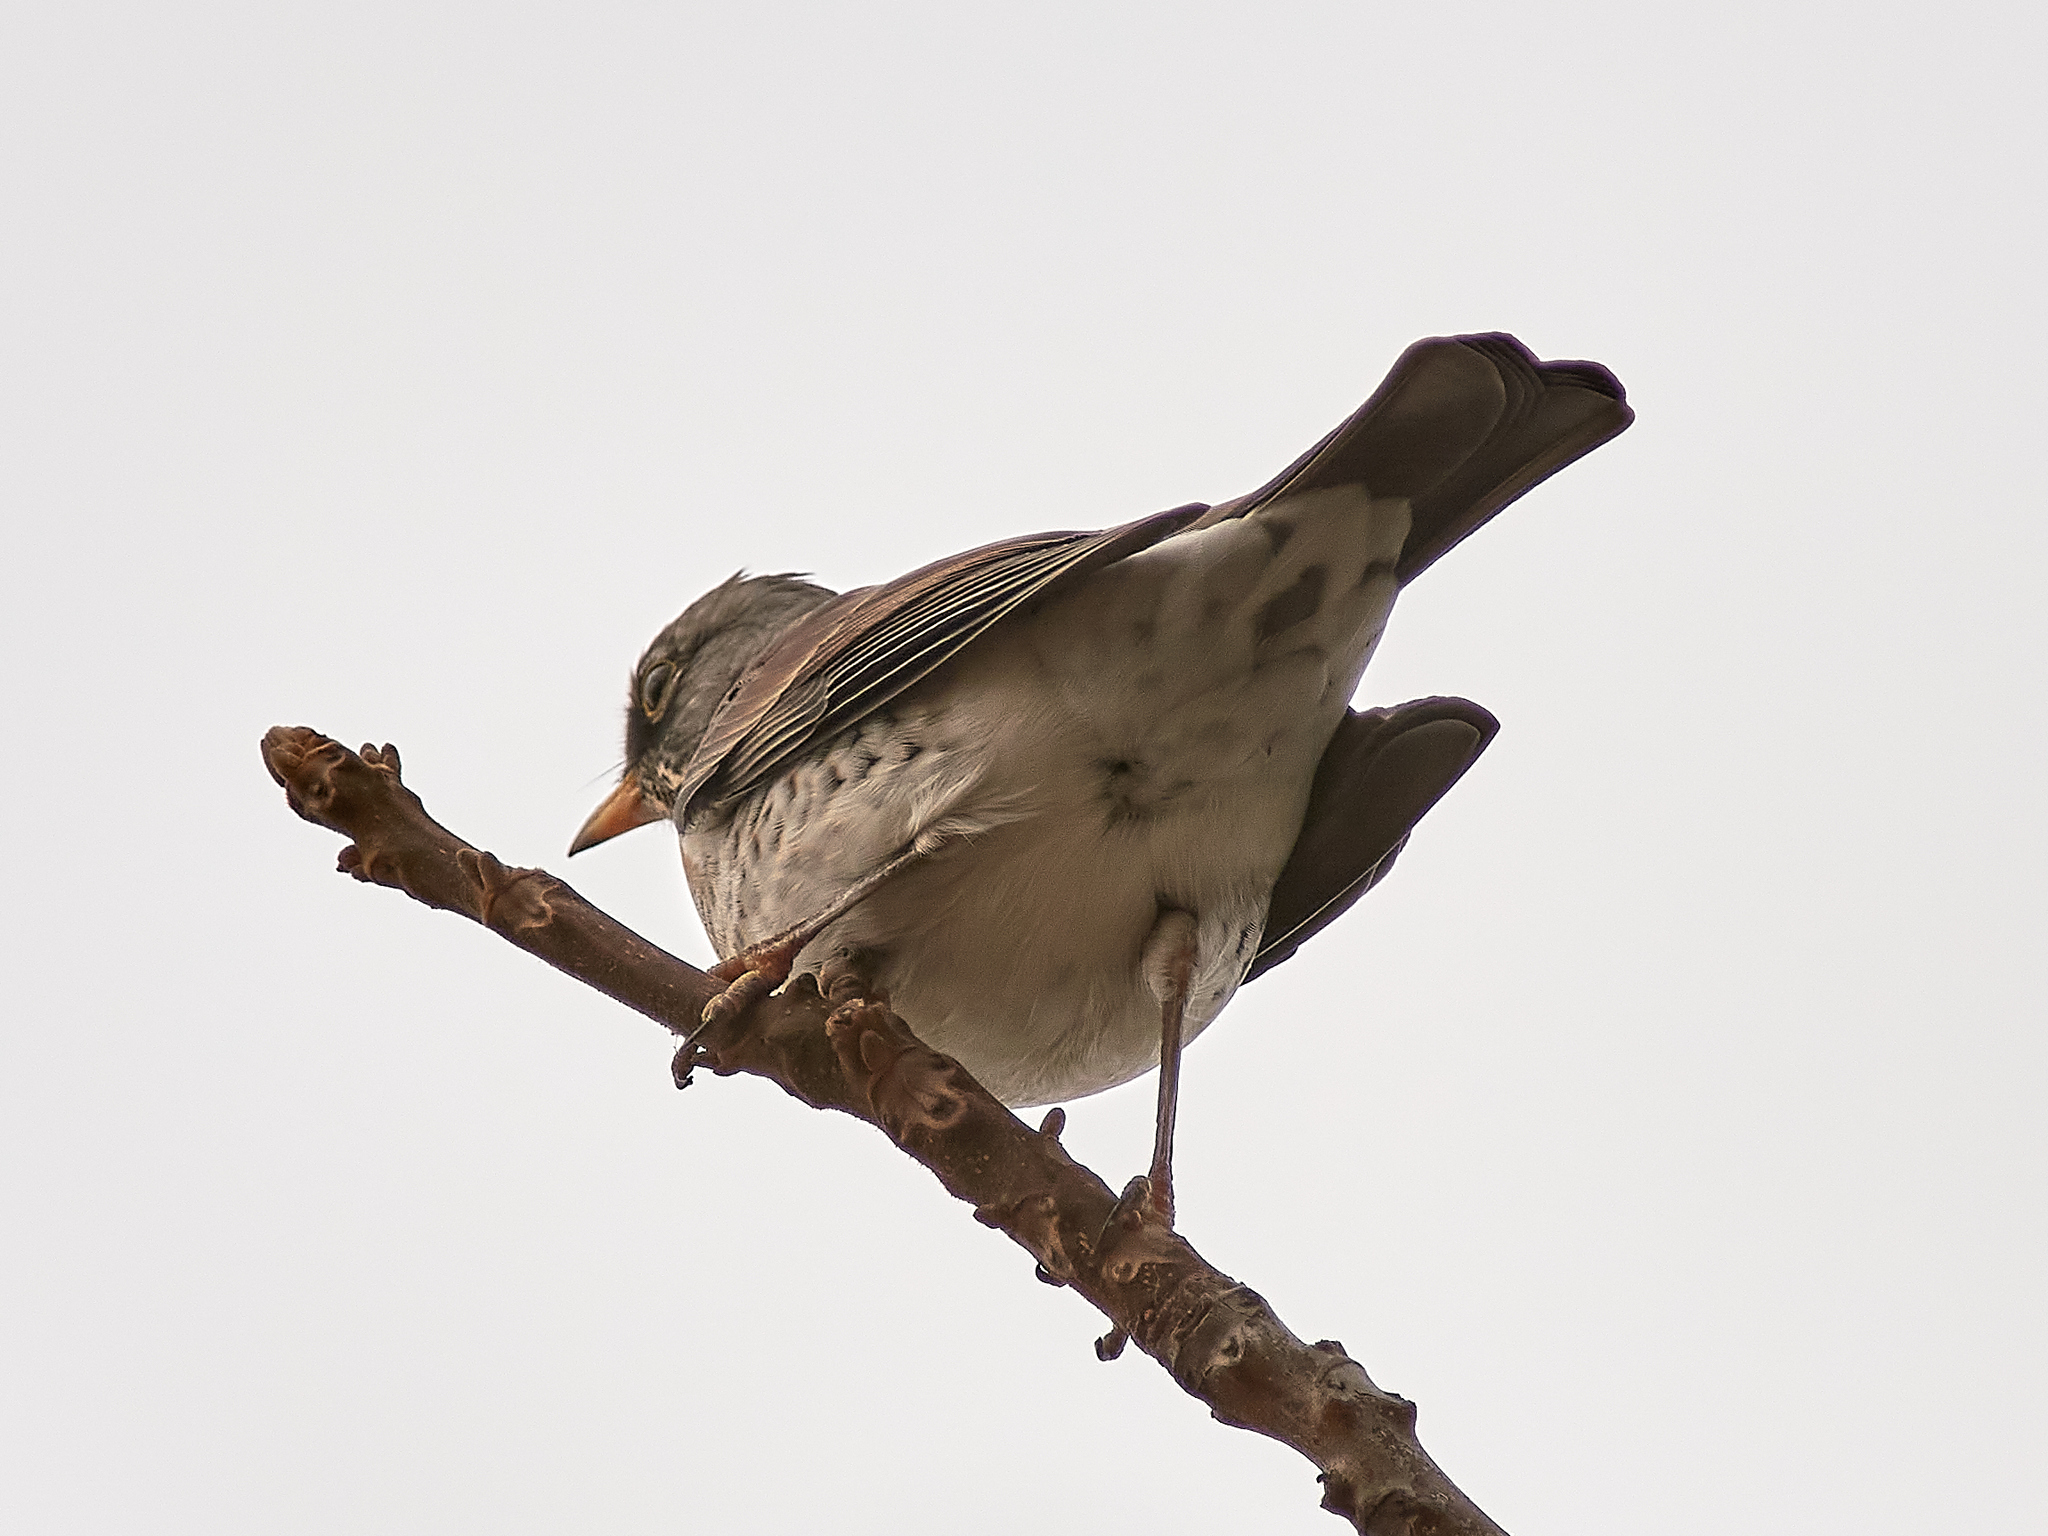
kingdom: Animalia
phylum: Chordata
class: Aves
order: Passeriformes
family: Turdidae
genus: Turdus
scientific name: Turdus pilaris
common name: Fieldfare
